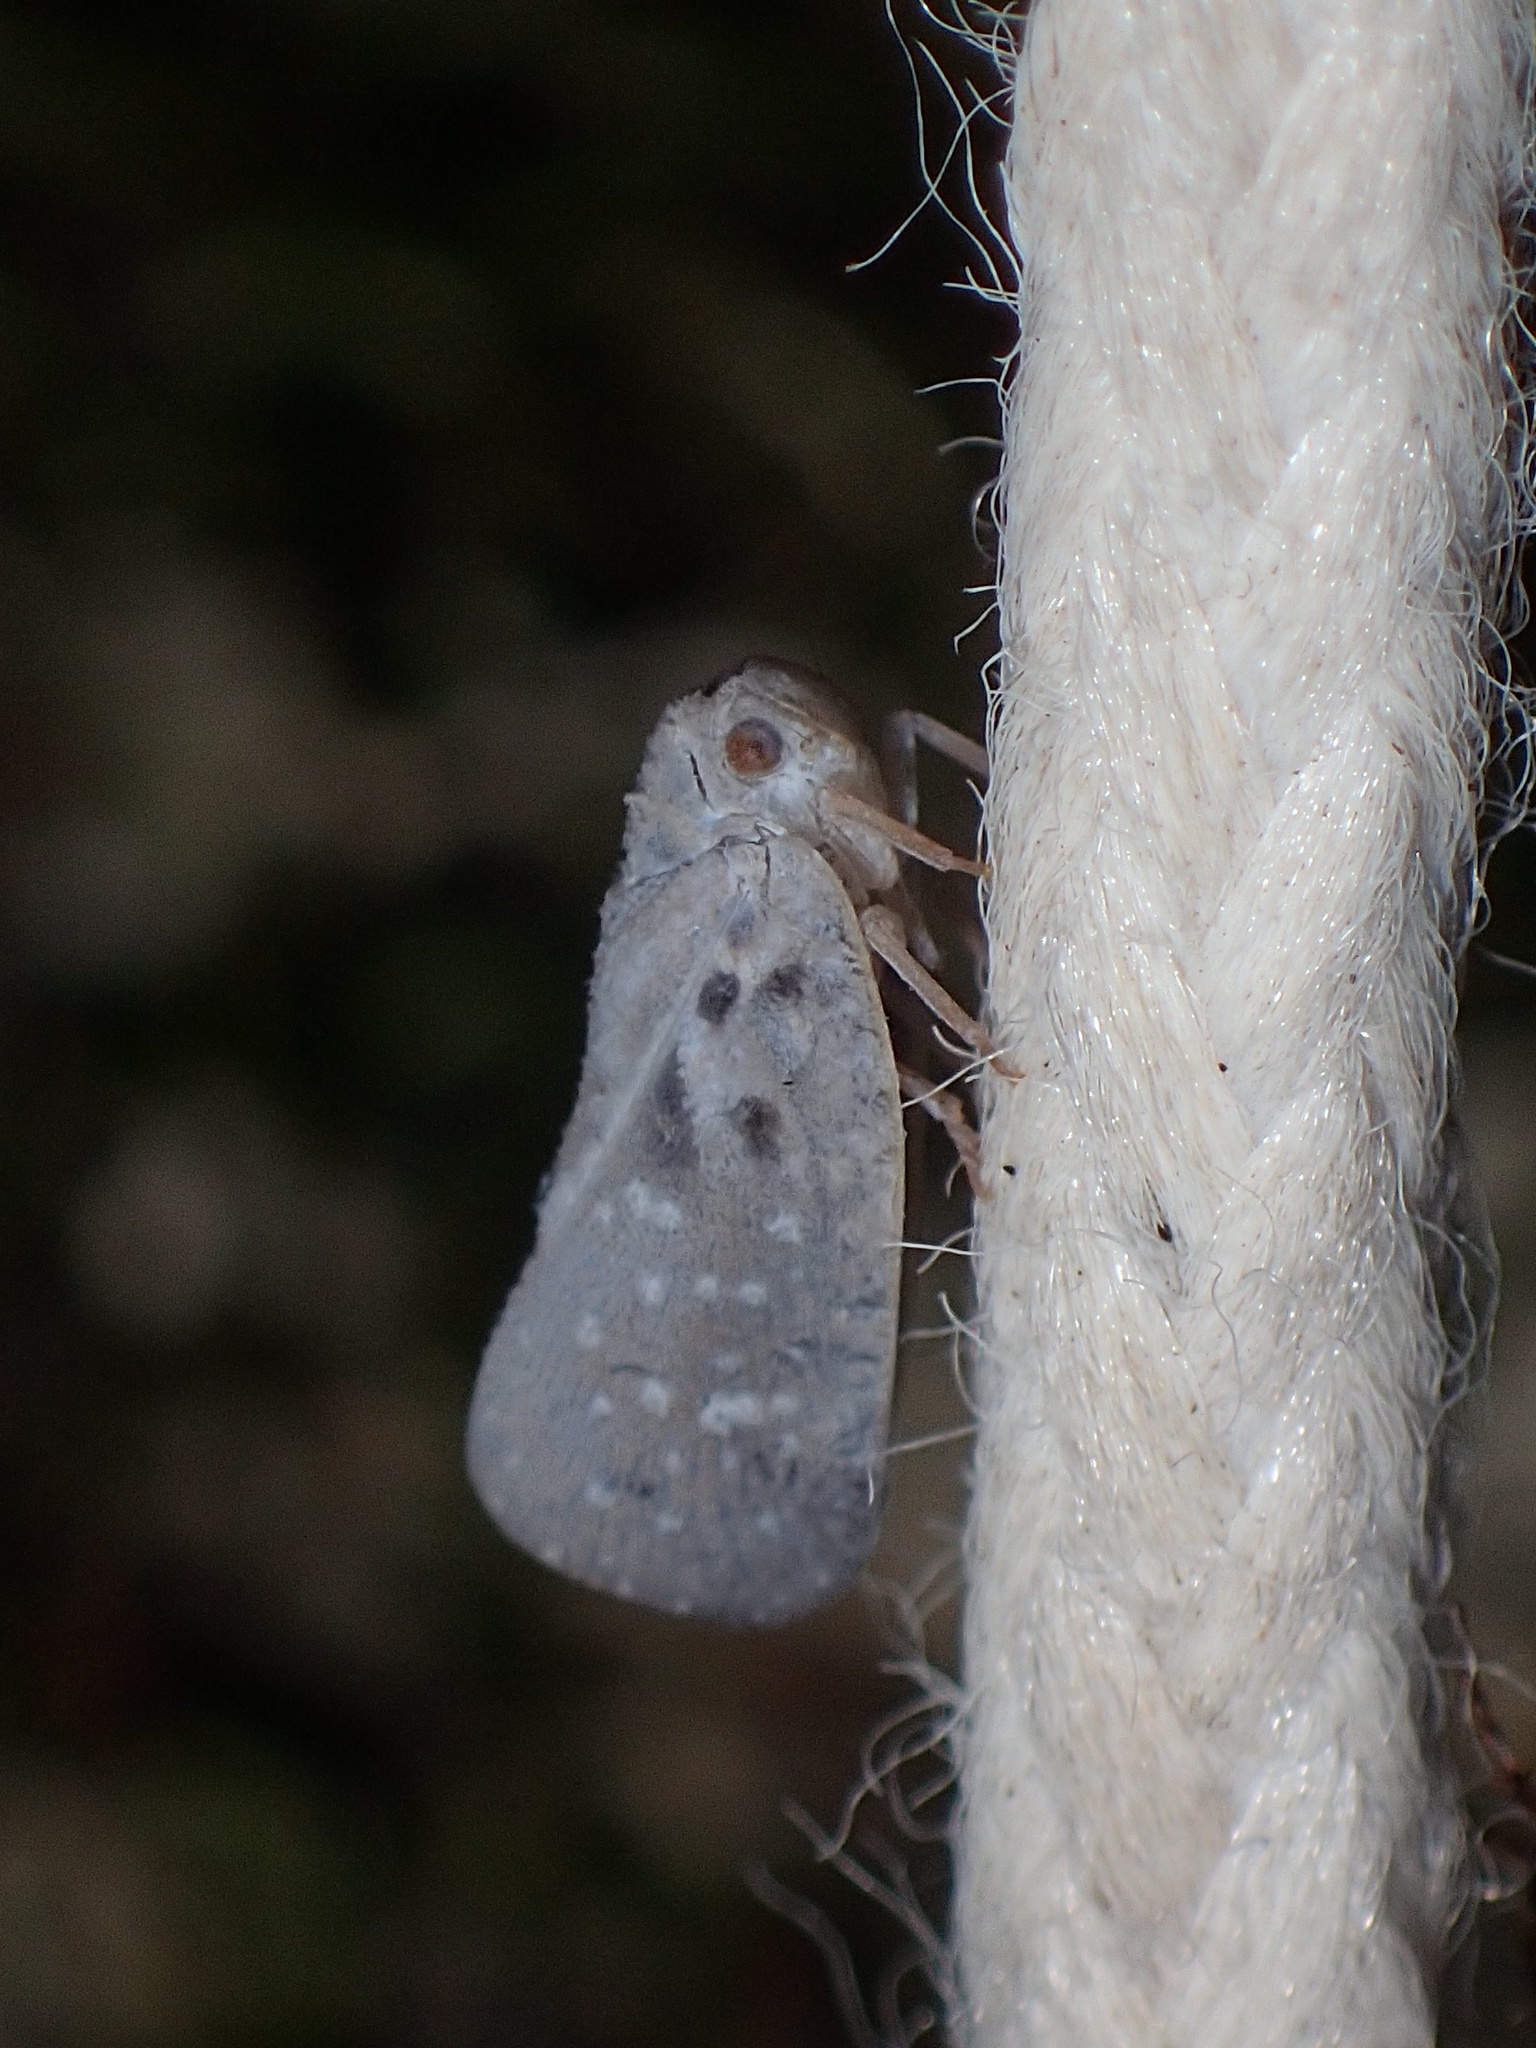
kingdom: Animalia
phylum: Arthropoda
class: Insecta
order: Hemiptera
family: Flatidae
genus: Metcalfa
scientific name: Metcalfa pruinosa
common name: Citrus flatid planthopper
